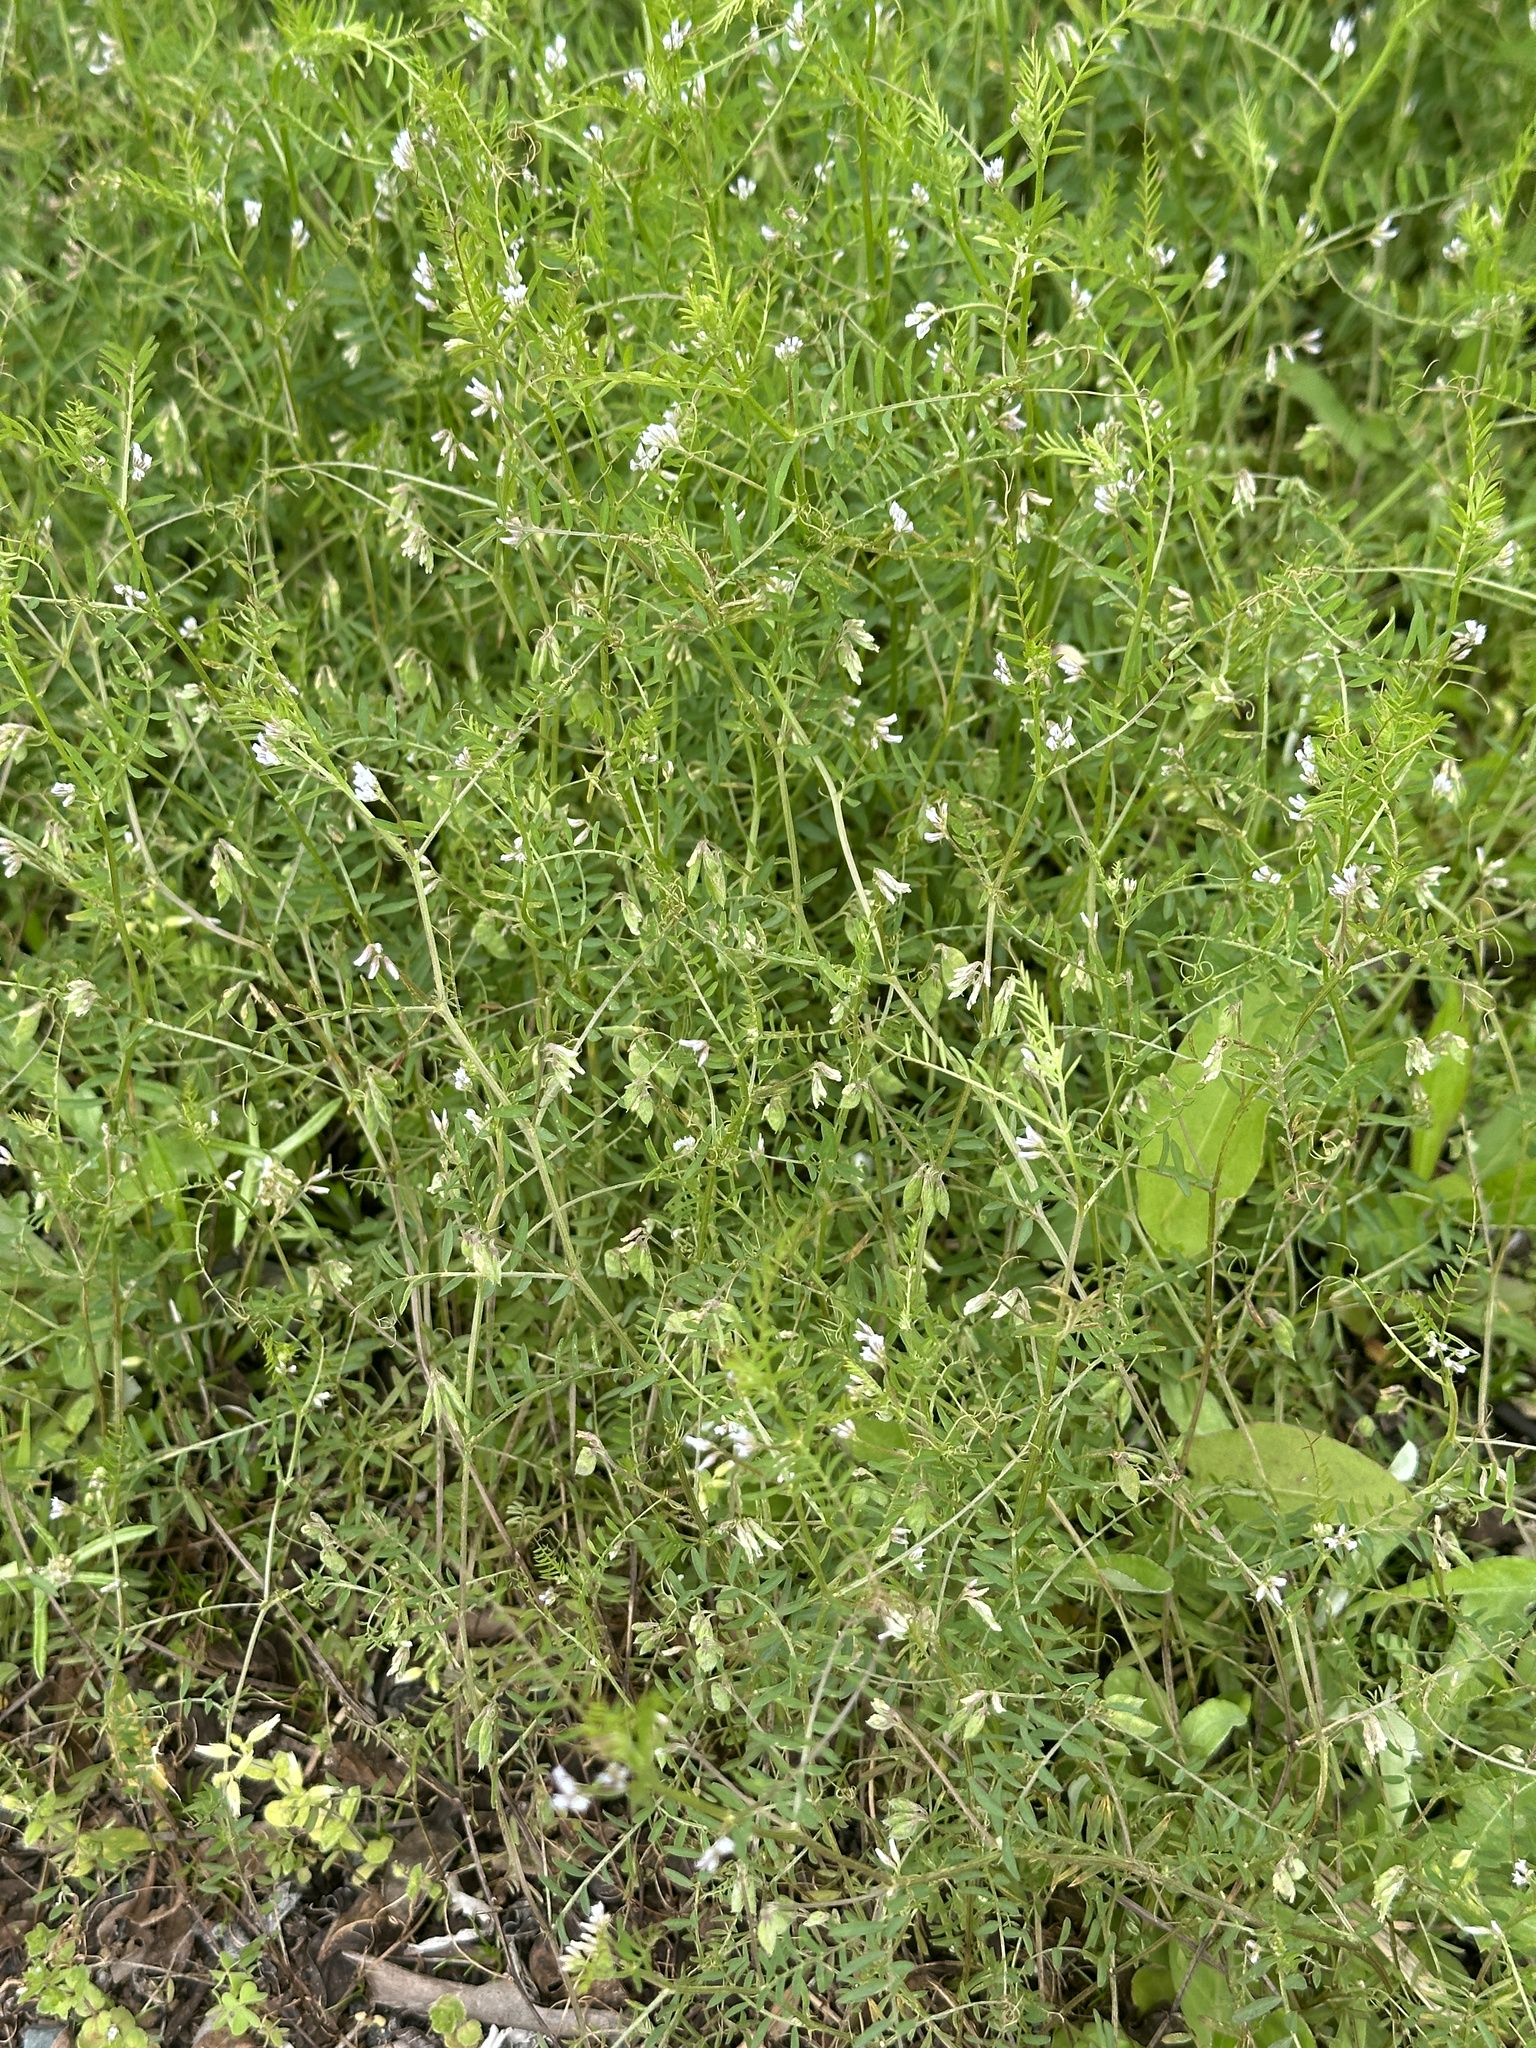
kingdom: Plantae
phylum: Tracheophyta
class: Magnoliopsida
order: Fabales
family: Fabaceae
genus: Vicia
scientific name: Vicia hirsuta
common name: Tiny vetch
